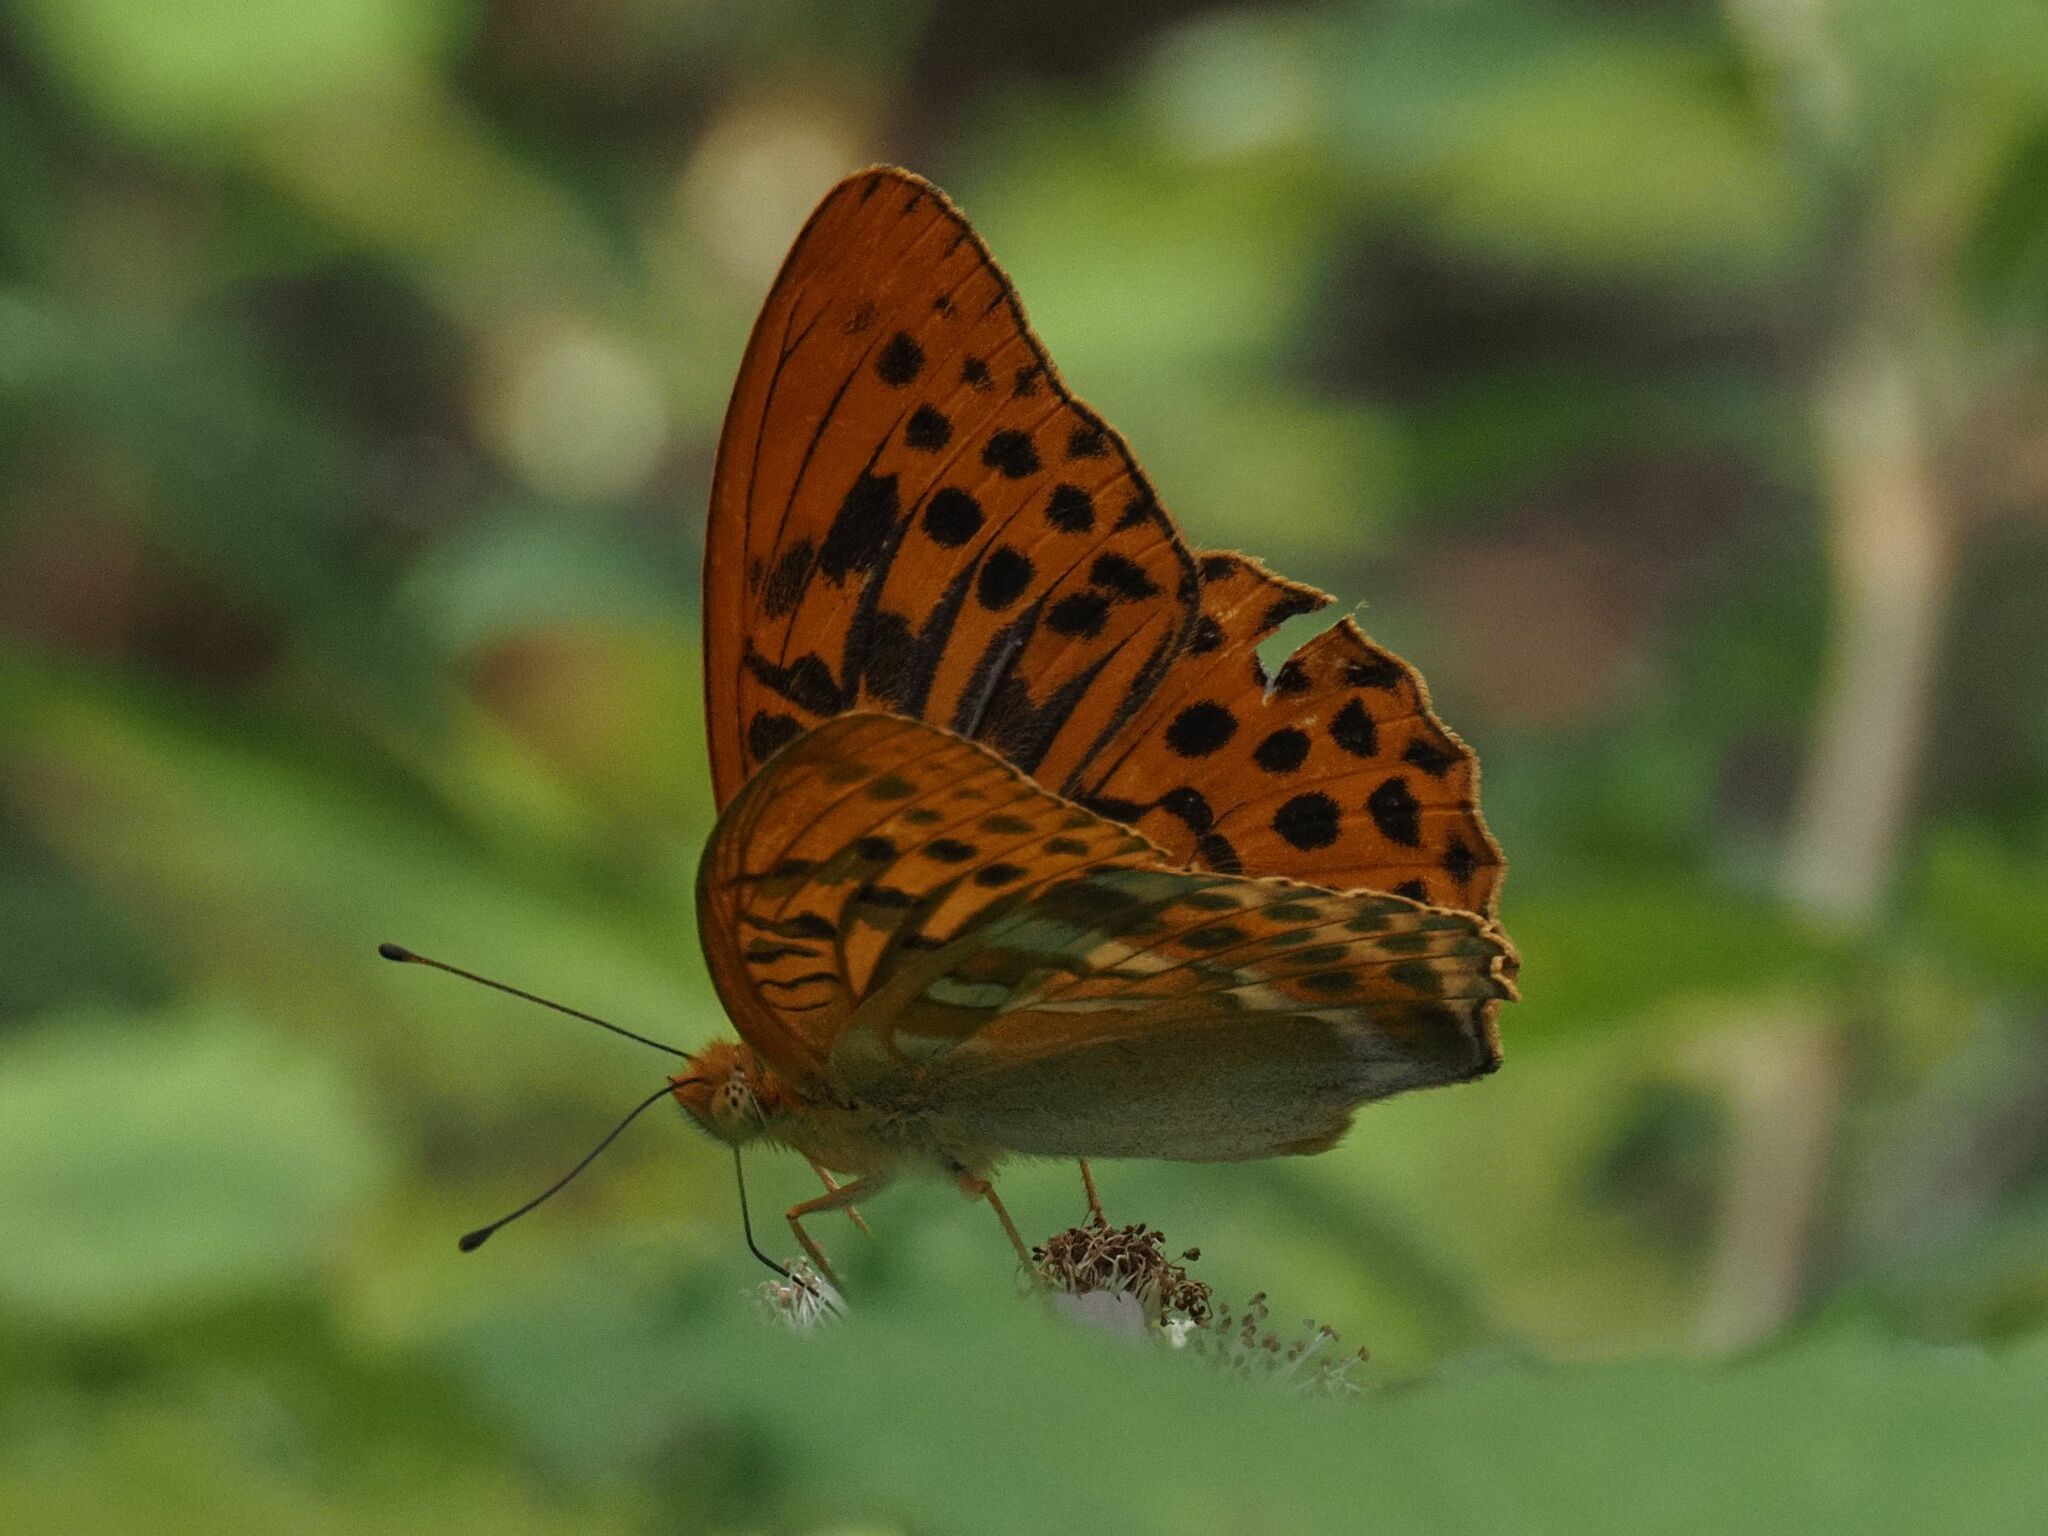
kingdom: Animalia
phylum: Arthropoda
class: Insecta
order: Lepidoptera
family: Nymphalidae
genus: Argynnis
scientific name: Argynnis paphia
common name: Silver-washed fritillary
